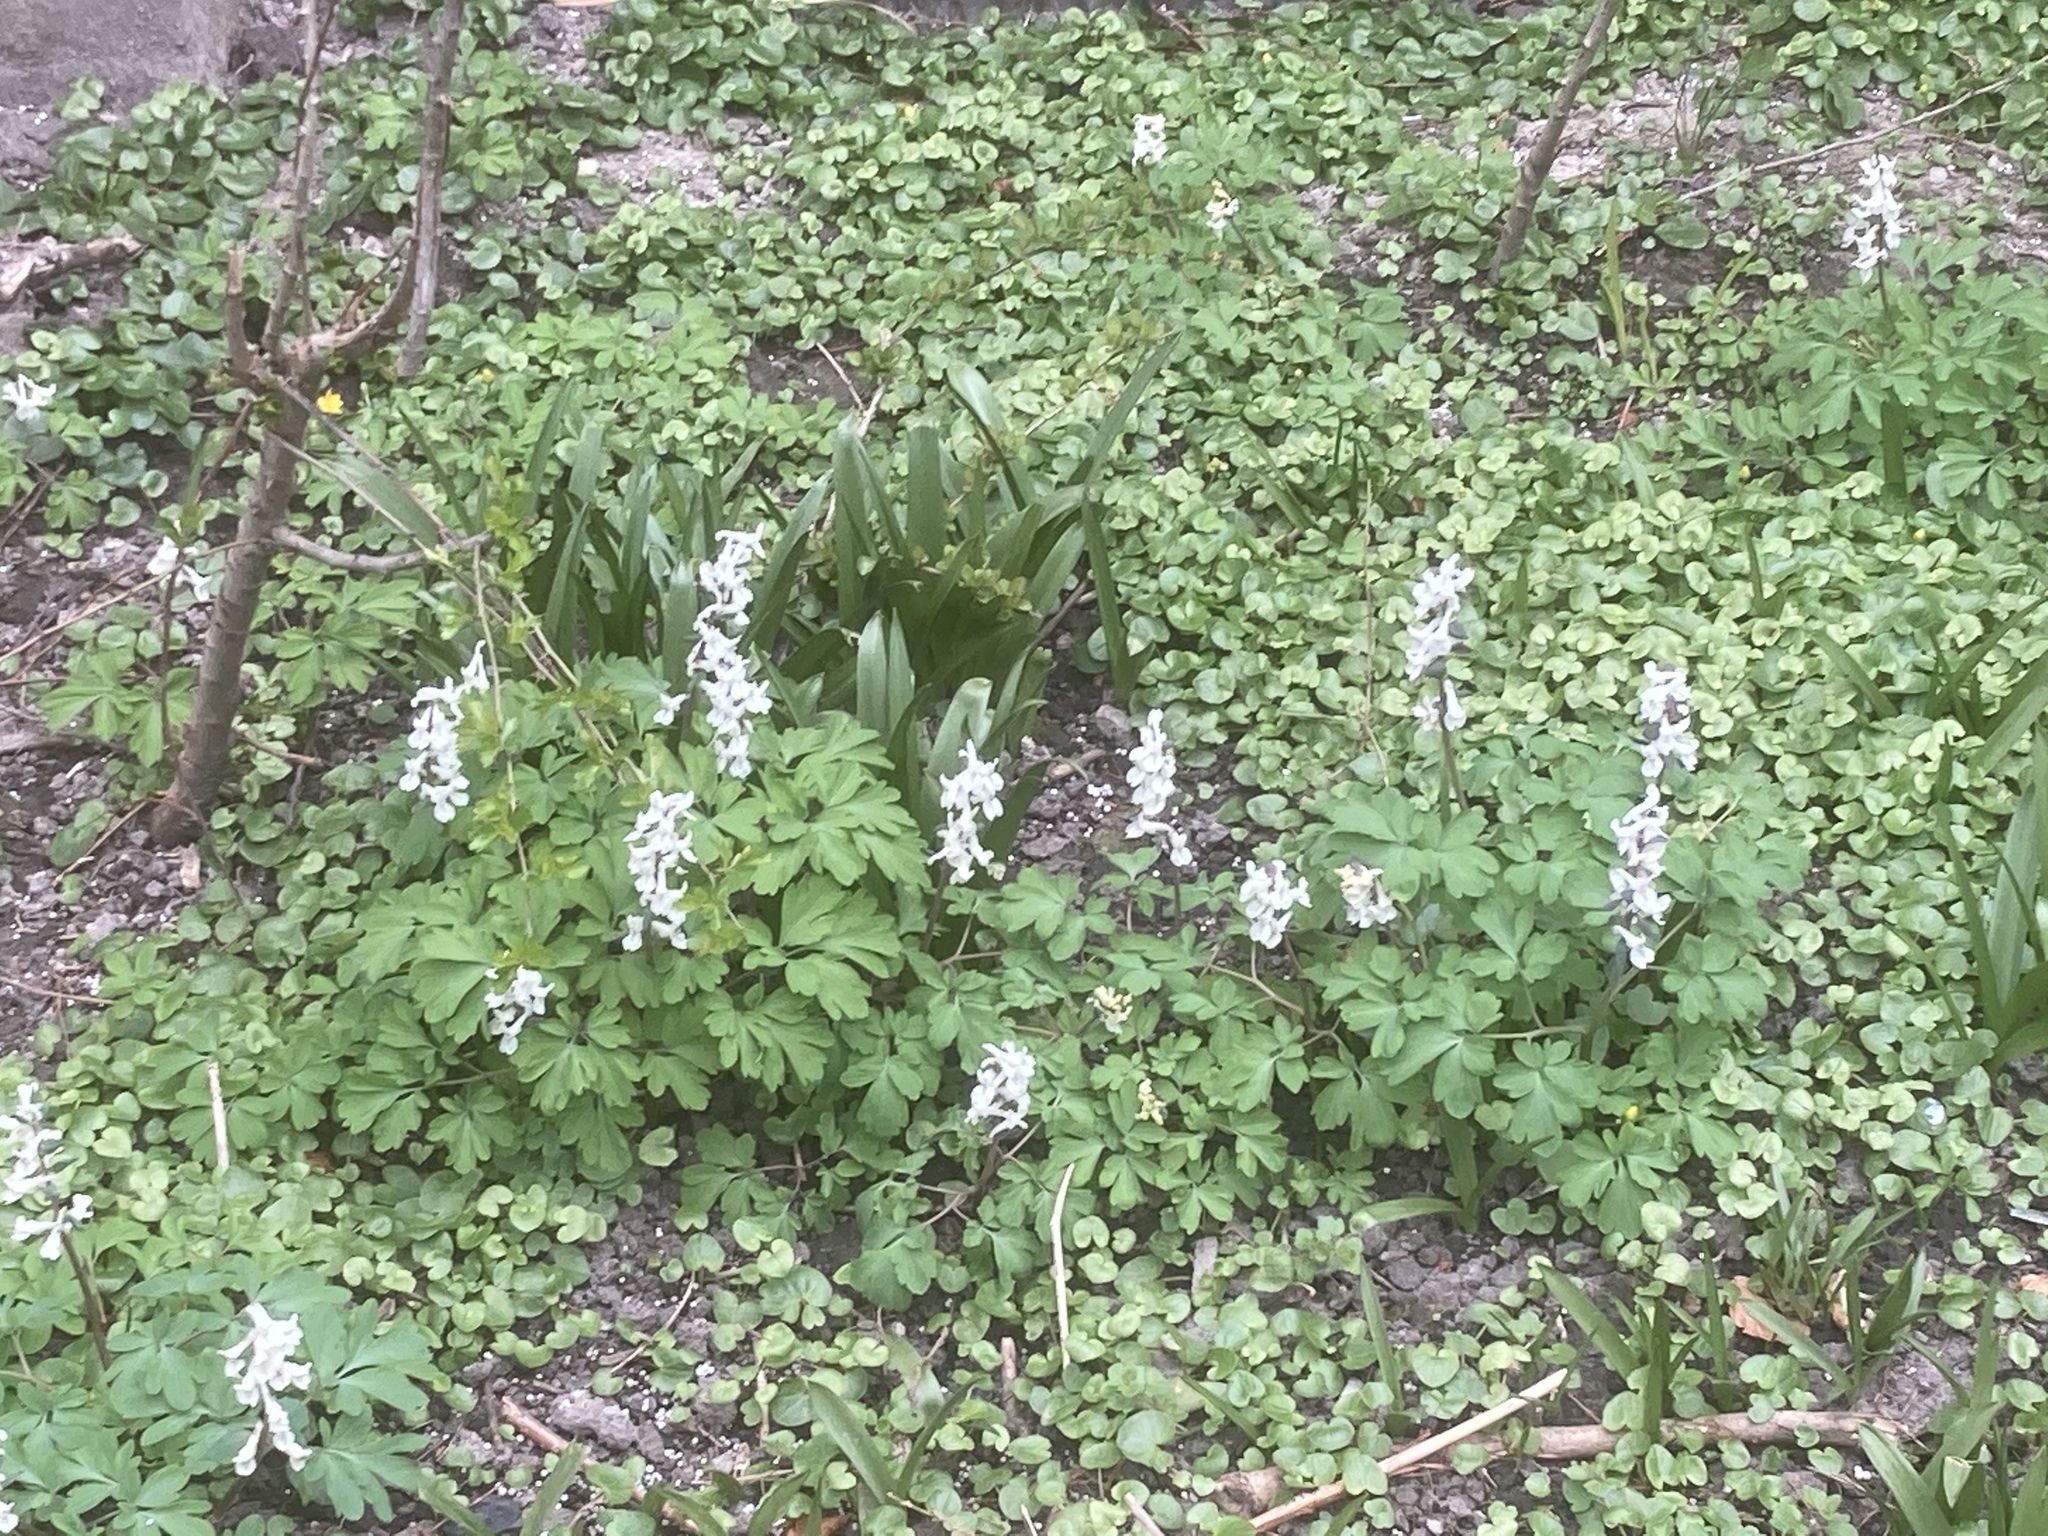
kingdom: Plantae
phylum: Tracheophyta
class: Magnoliopsida
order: Ranunculales
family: Papaveraceae
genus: Corydalis
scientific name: Corydalis cava
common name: Hollowroot
